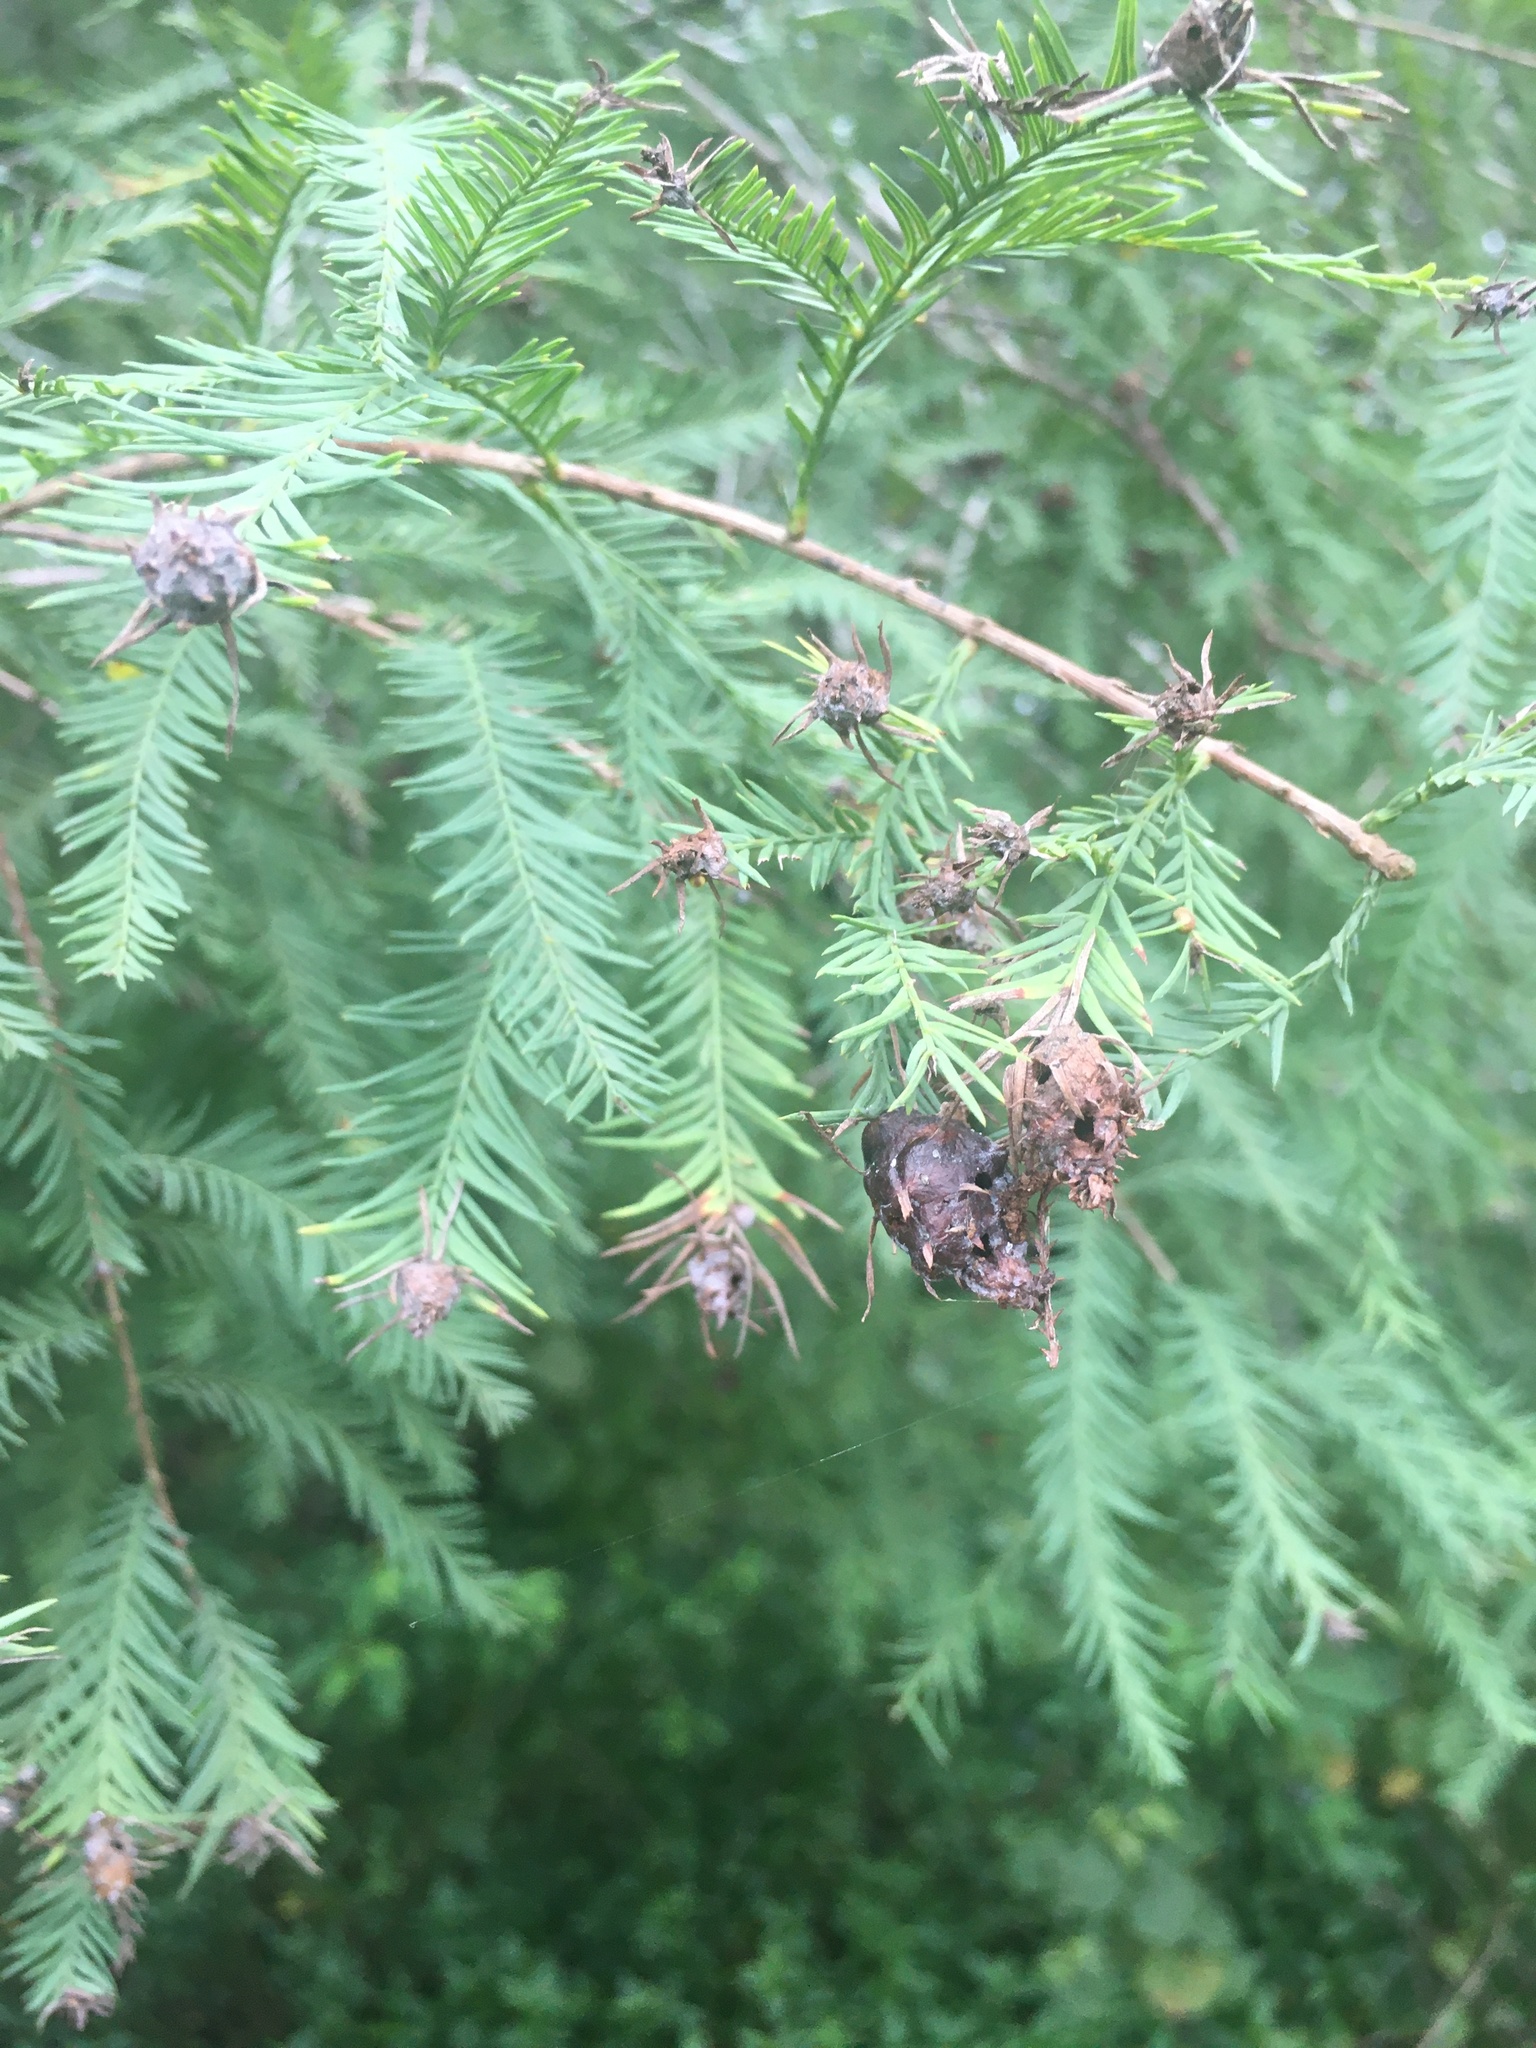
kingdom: Animalia
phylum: Arthropoda
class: Insecta
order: Diptera
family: Cecidomyiidae
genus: Taxodiomyia
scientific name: Taxodiomyia cupressiananassa
